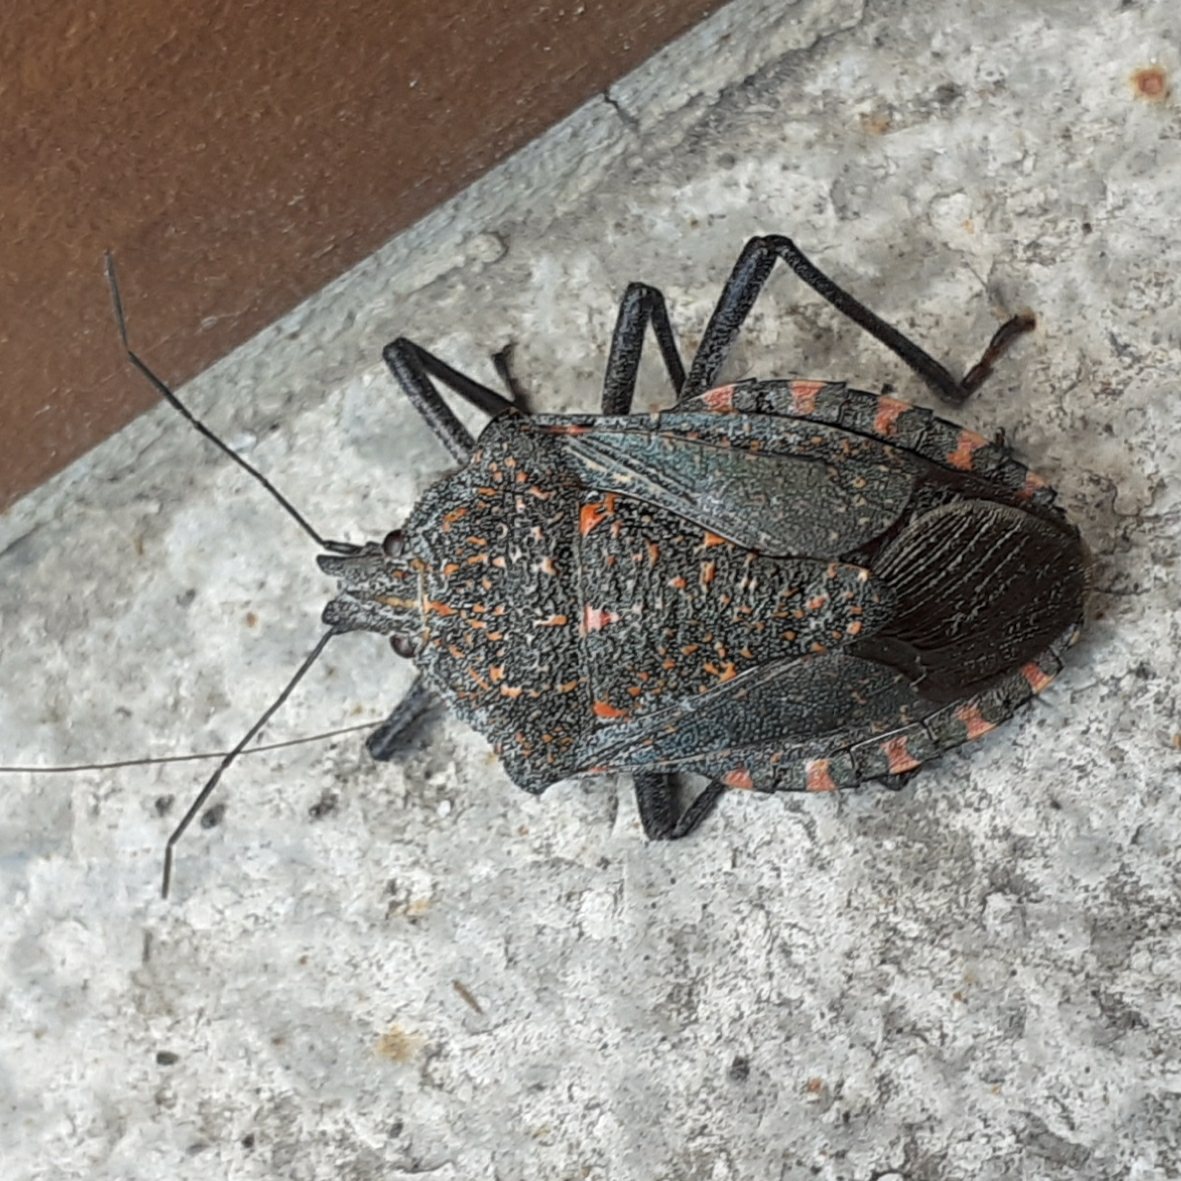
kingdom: Animalia
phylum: Arthropoda
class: Insecta
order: Hemiptera
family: Pentatomidae
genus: Apodiphus
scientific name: Apodiphus amygdali
